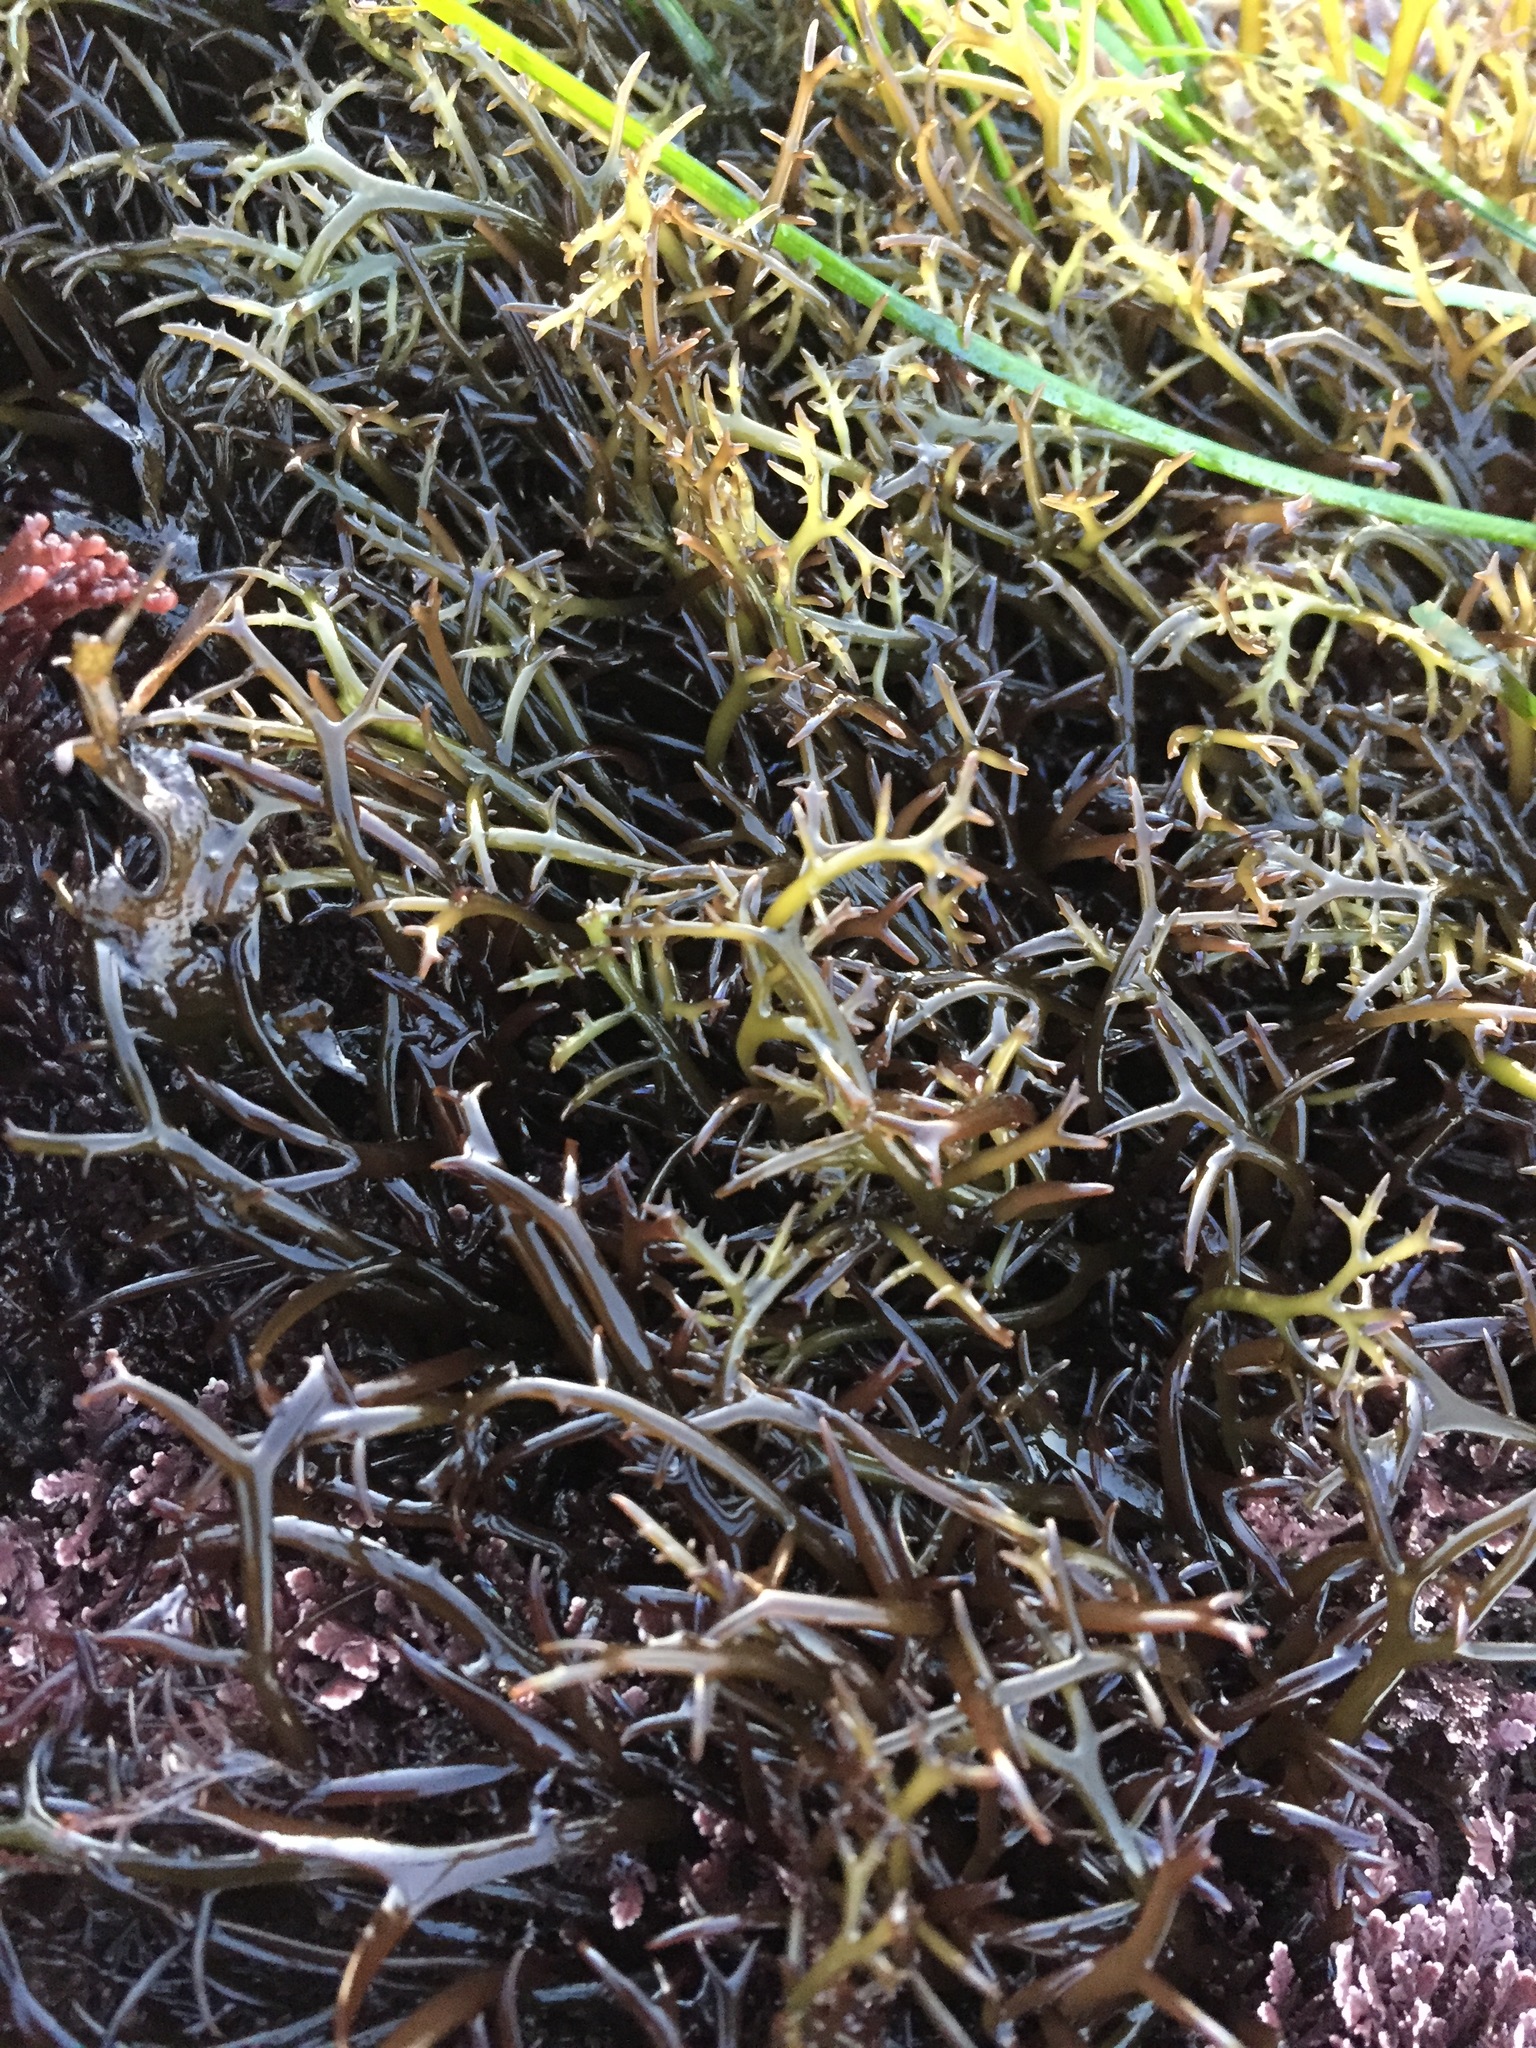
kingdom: Plantae
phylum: Rhodophyta
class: Florideophyceae
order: Gigartinales
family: Gigartinaceae
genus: Chondracanthus
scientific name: Chondracanthus canaliculatus
